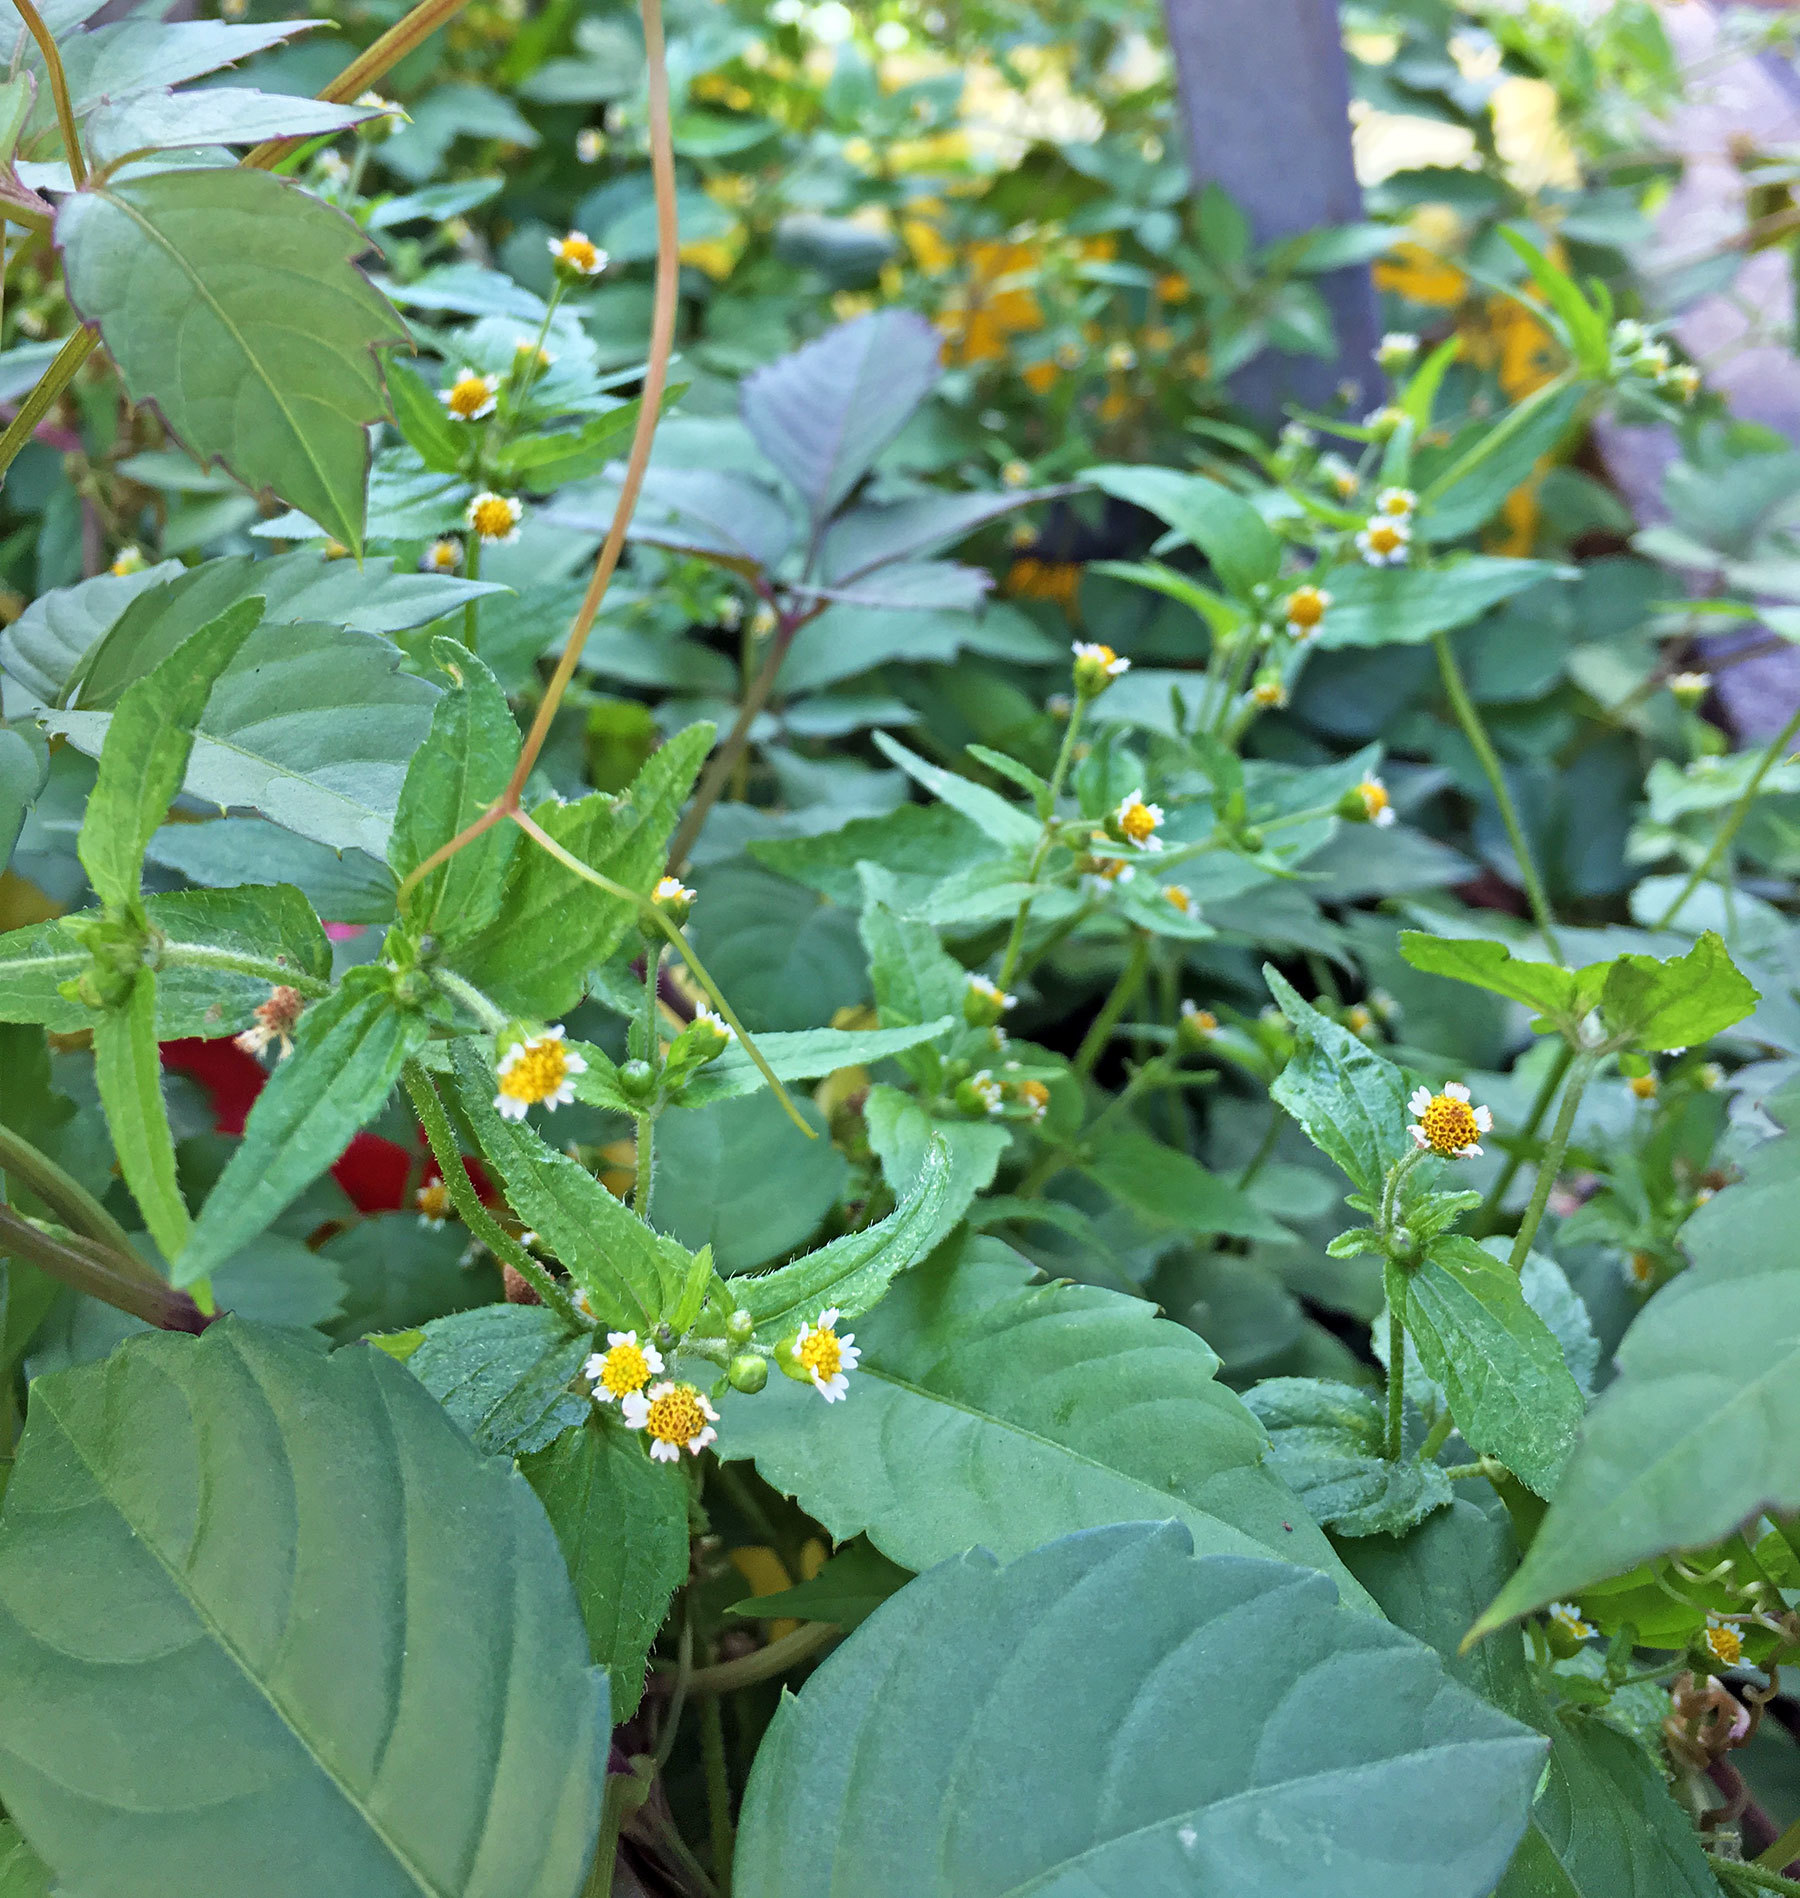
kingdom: Plantae
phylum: Tracheophyta
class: Magnoliopsida
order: Asterales
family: Asteraceae
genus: Galinsoga
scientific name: Galinsoga quadriradiata
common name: Shaggy soldier
